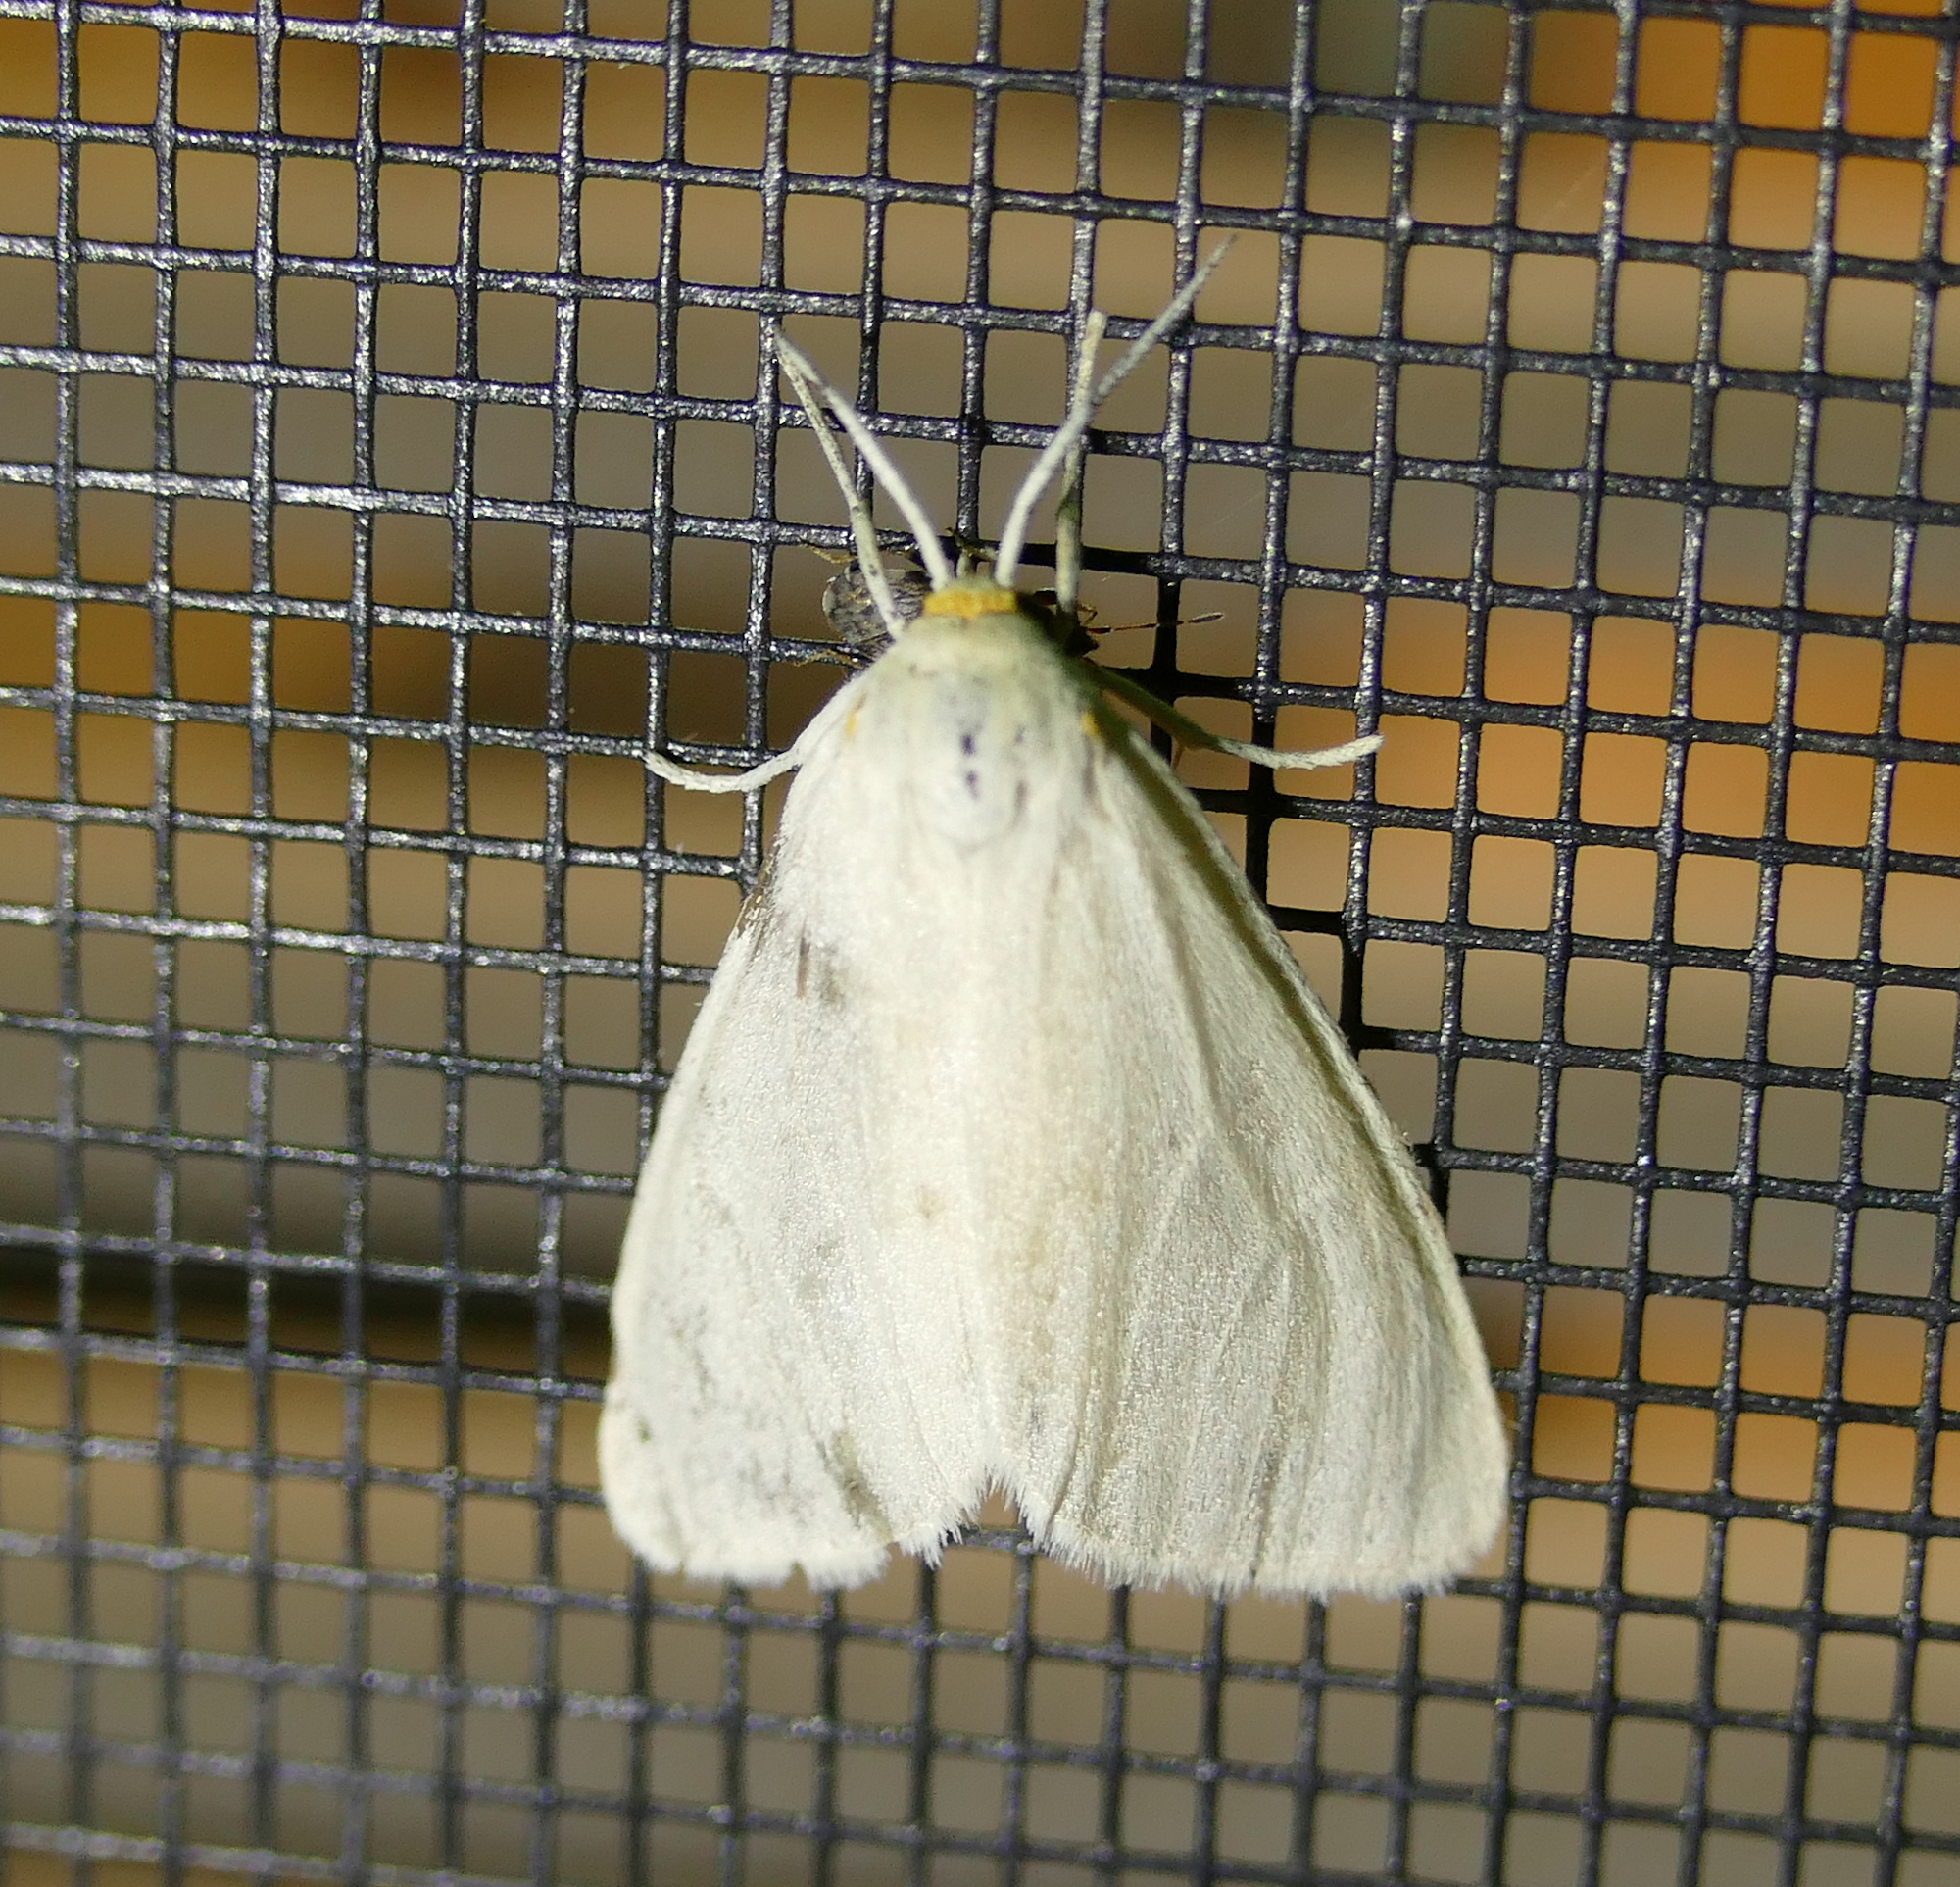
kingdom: Animalia
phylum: Arthropoda
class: Insecta
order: Lepidoptera
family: Erebidae
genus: Neoplynes
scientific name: Neoplynes eudora
